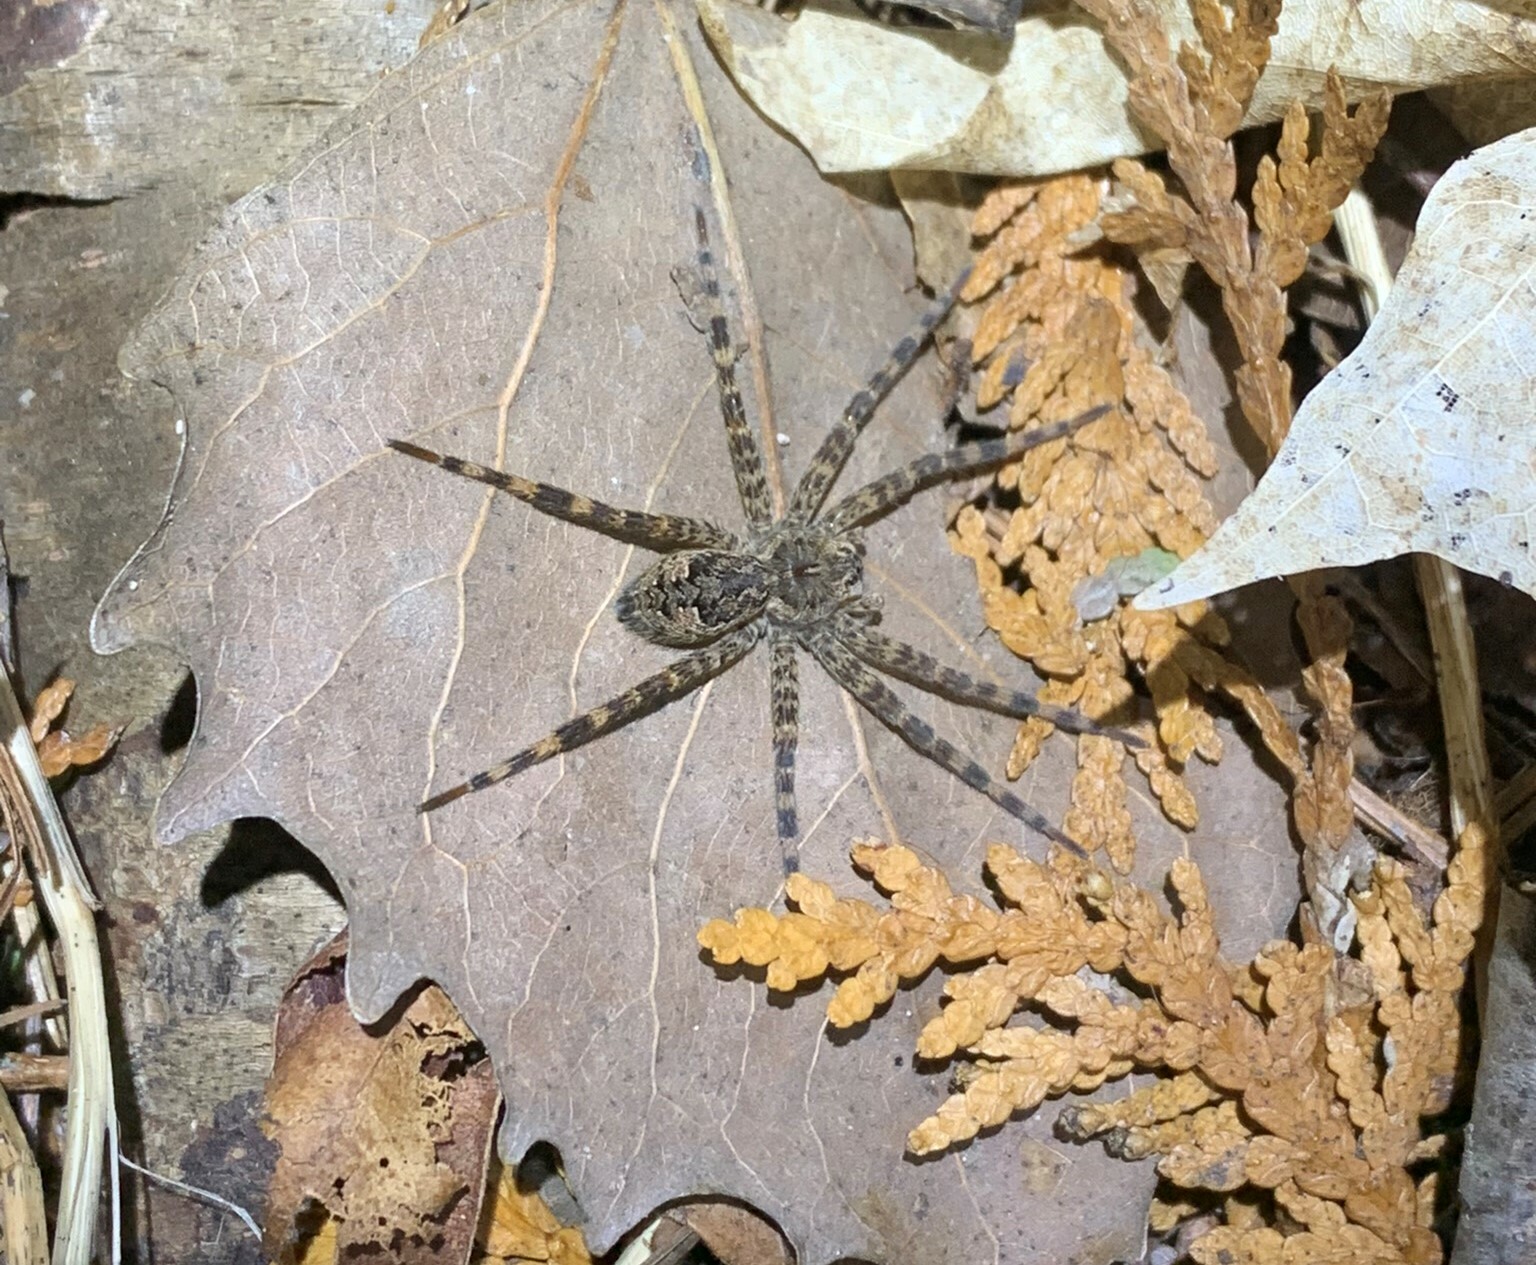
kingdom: Animalia
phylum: Arthropoda
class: Arachnida
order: Araneae
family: Pisauridae
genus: Dolomedes
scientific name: Dolomedes tenebrosus
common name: Dark fishing spider
